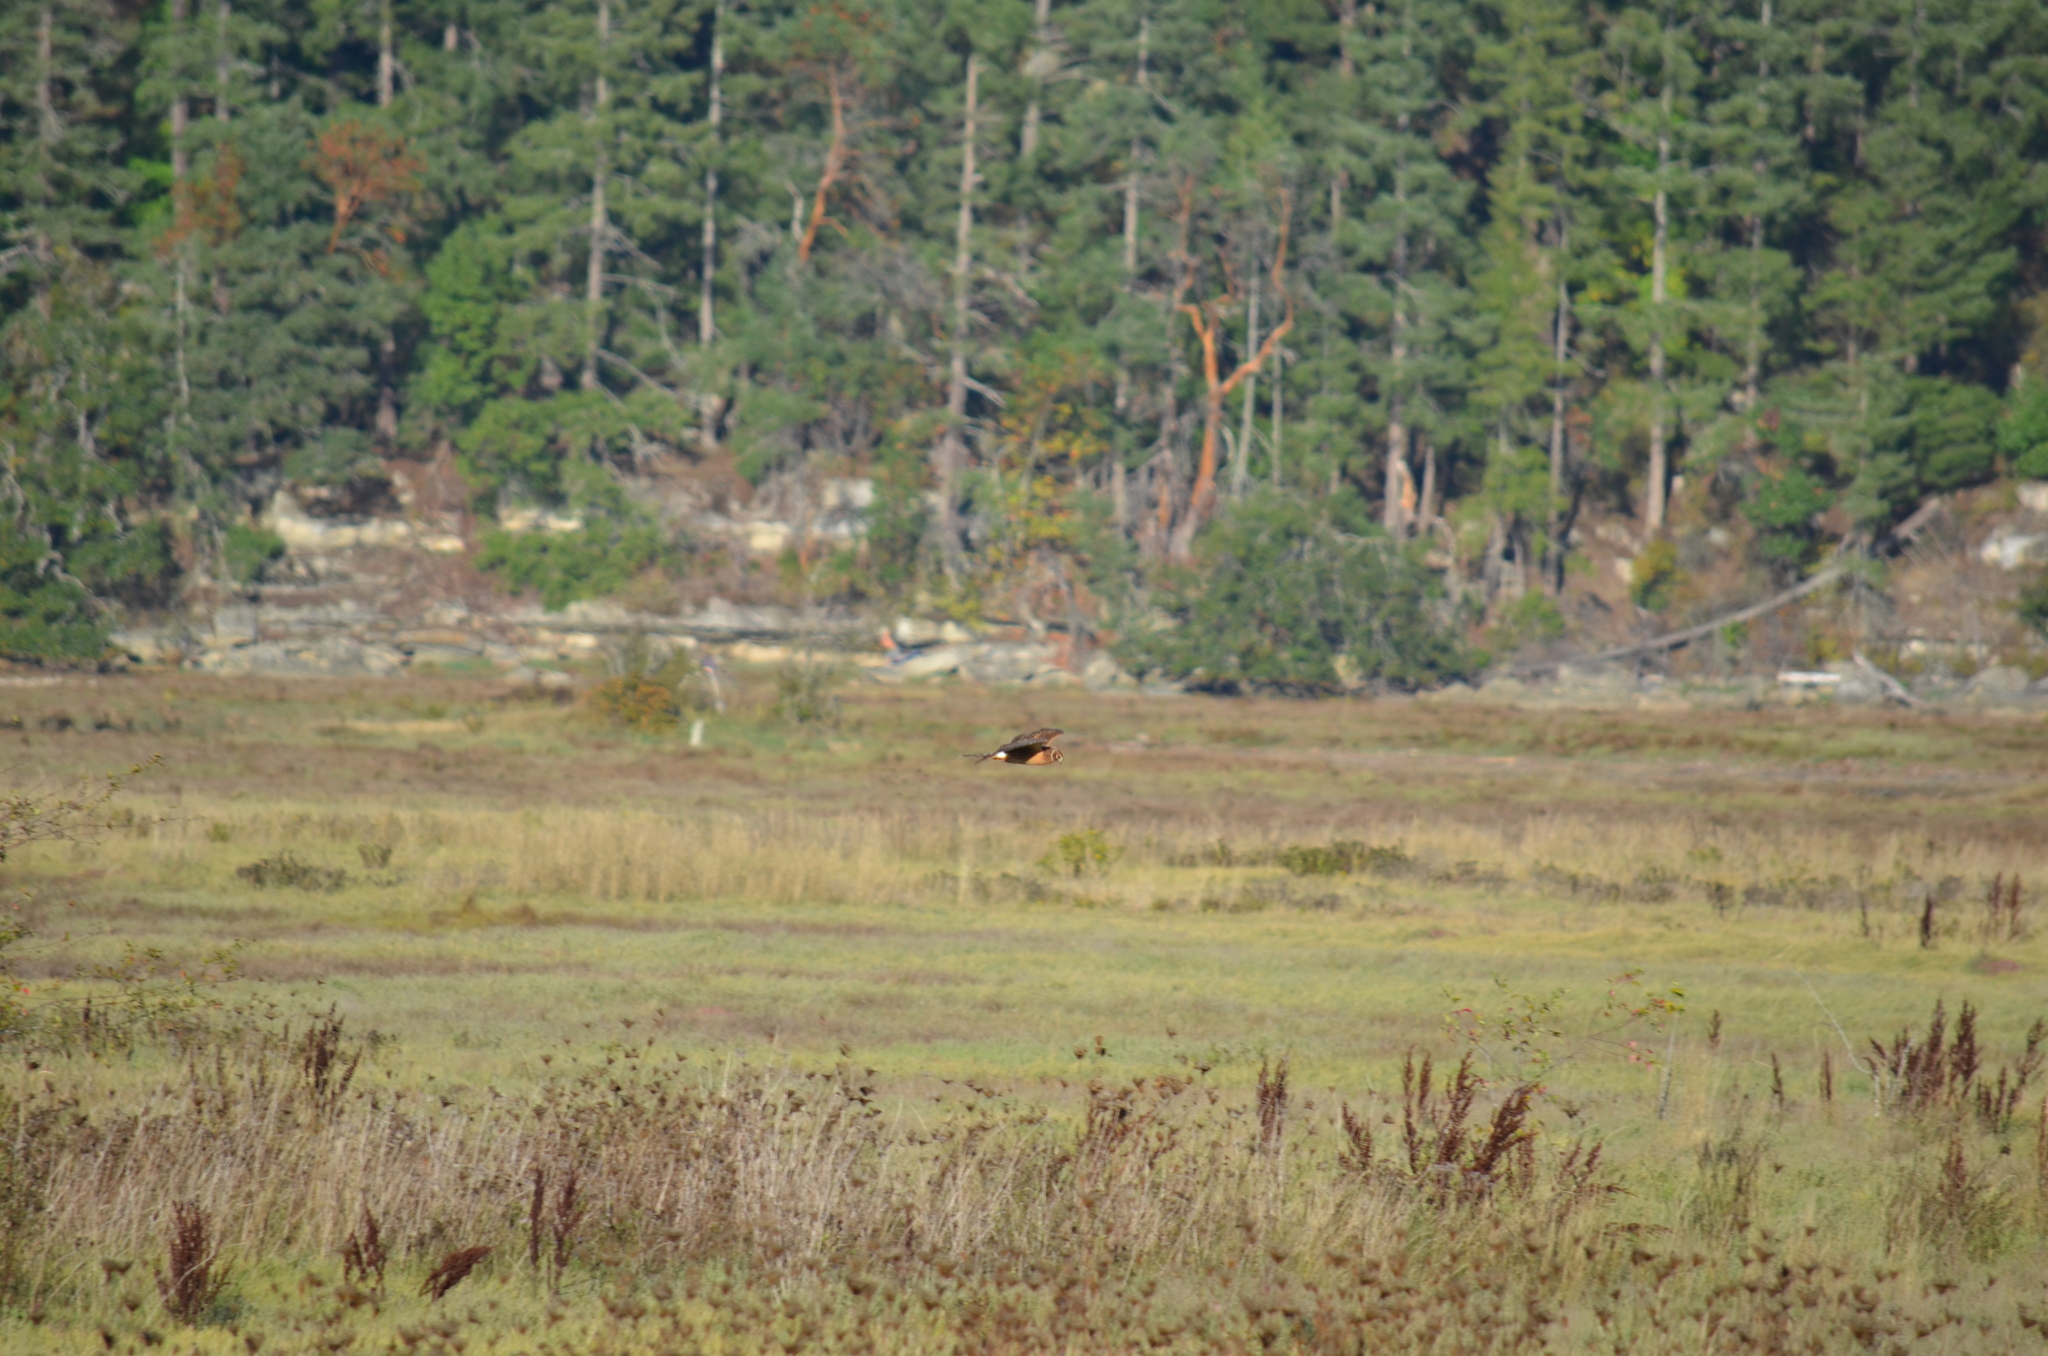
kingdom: Animalia
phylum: Chordata
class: Aves
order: Accipitriformes
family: Accipitridae
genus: Circus
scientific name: Circus cyaneus
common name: Hen harrier
